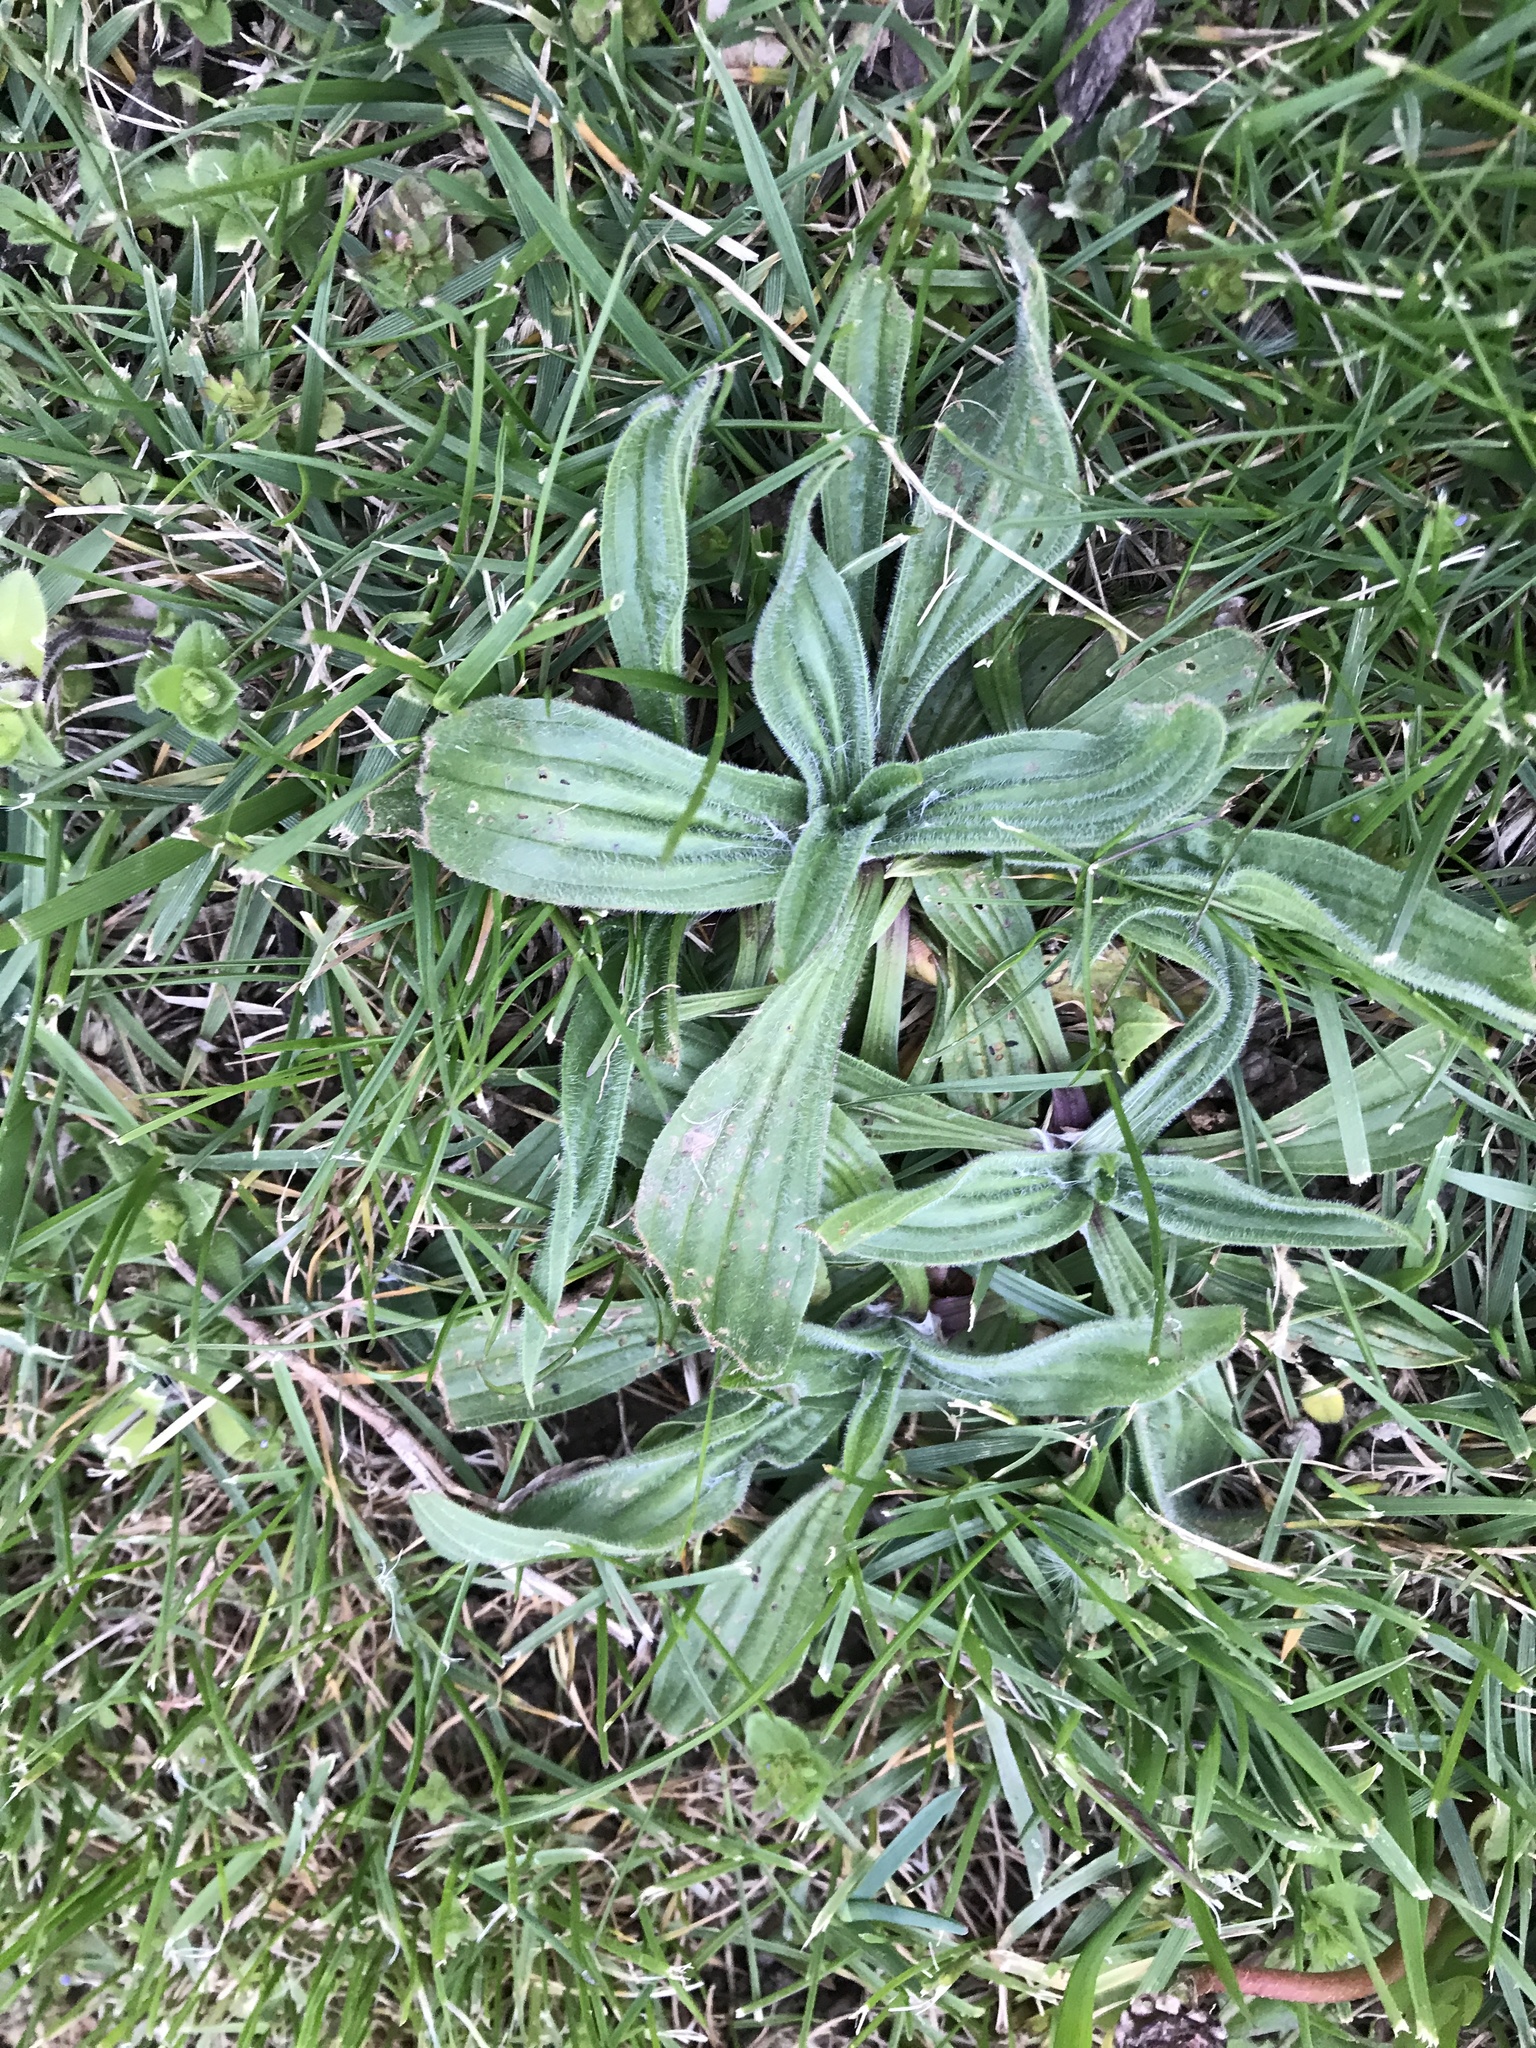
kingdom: Plantae
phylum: Tracheophyta
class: Magnoliopsida
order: Lamiales
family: Plantaginaceae
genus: Plantago
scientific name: Plantago lanceolata
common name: Ribwort plantain
